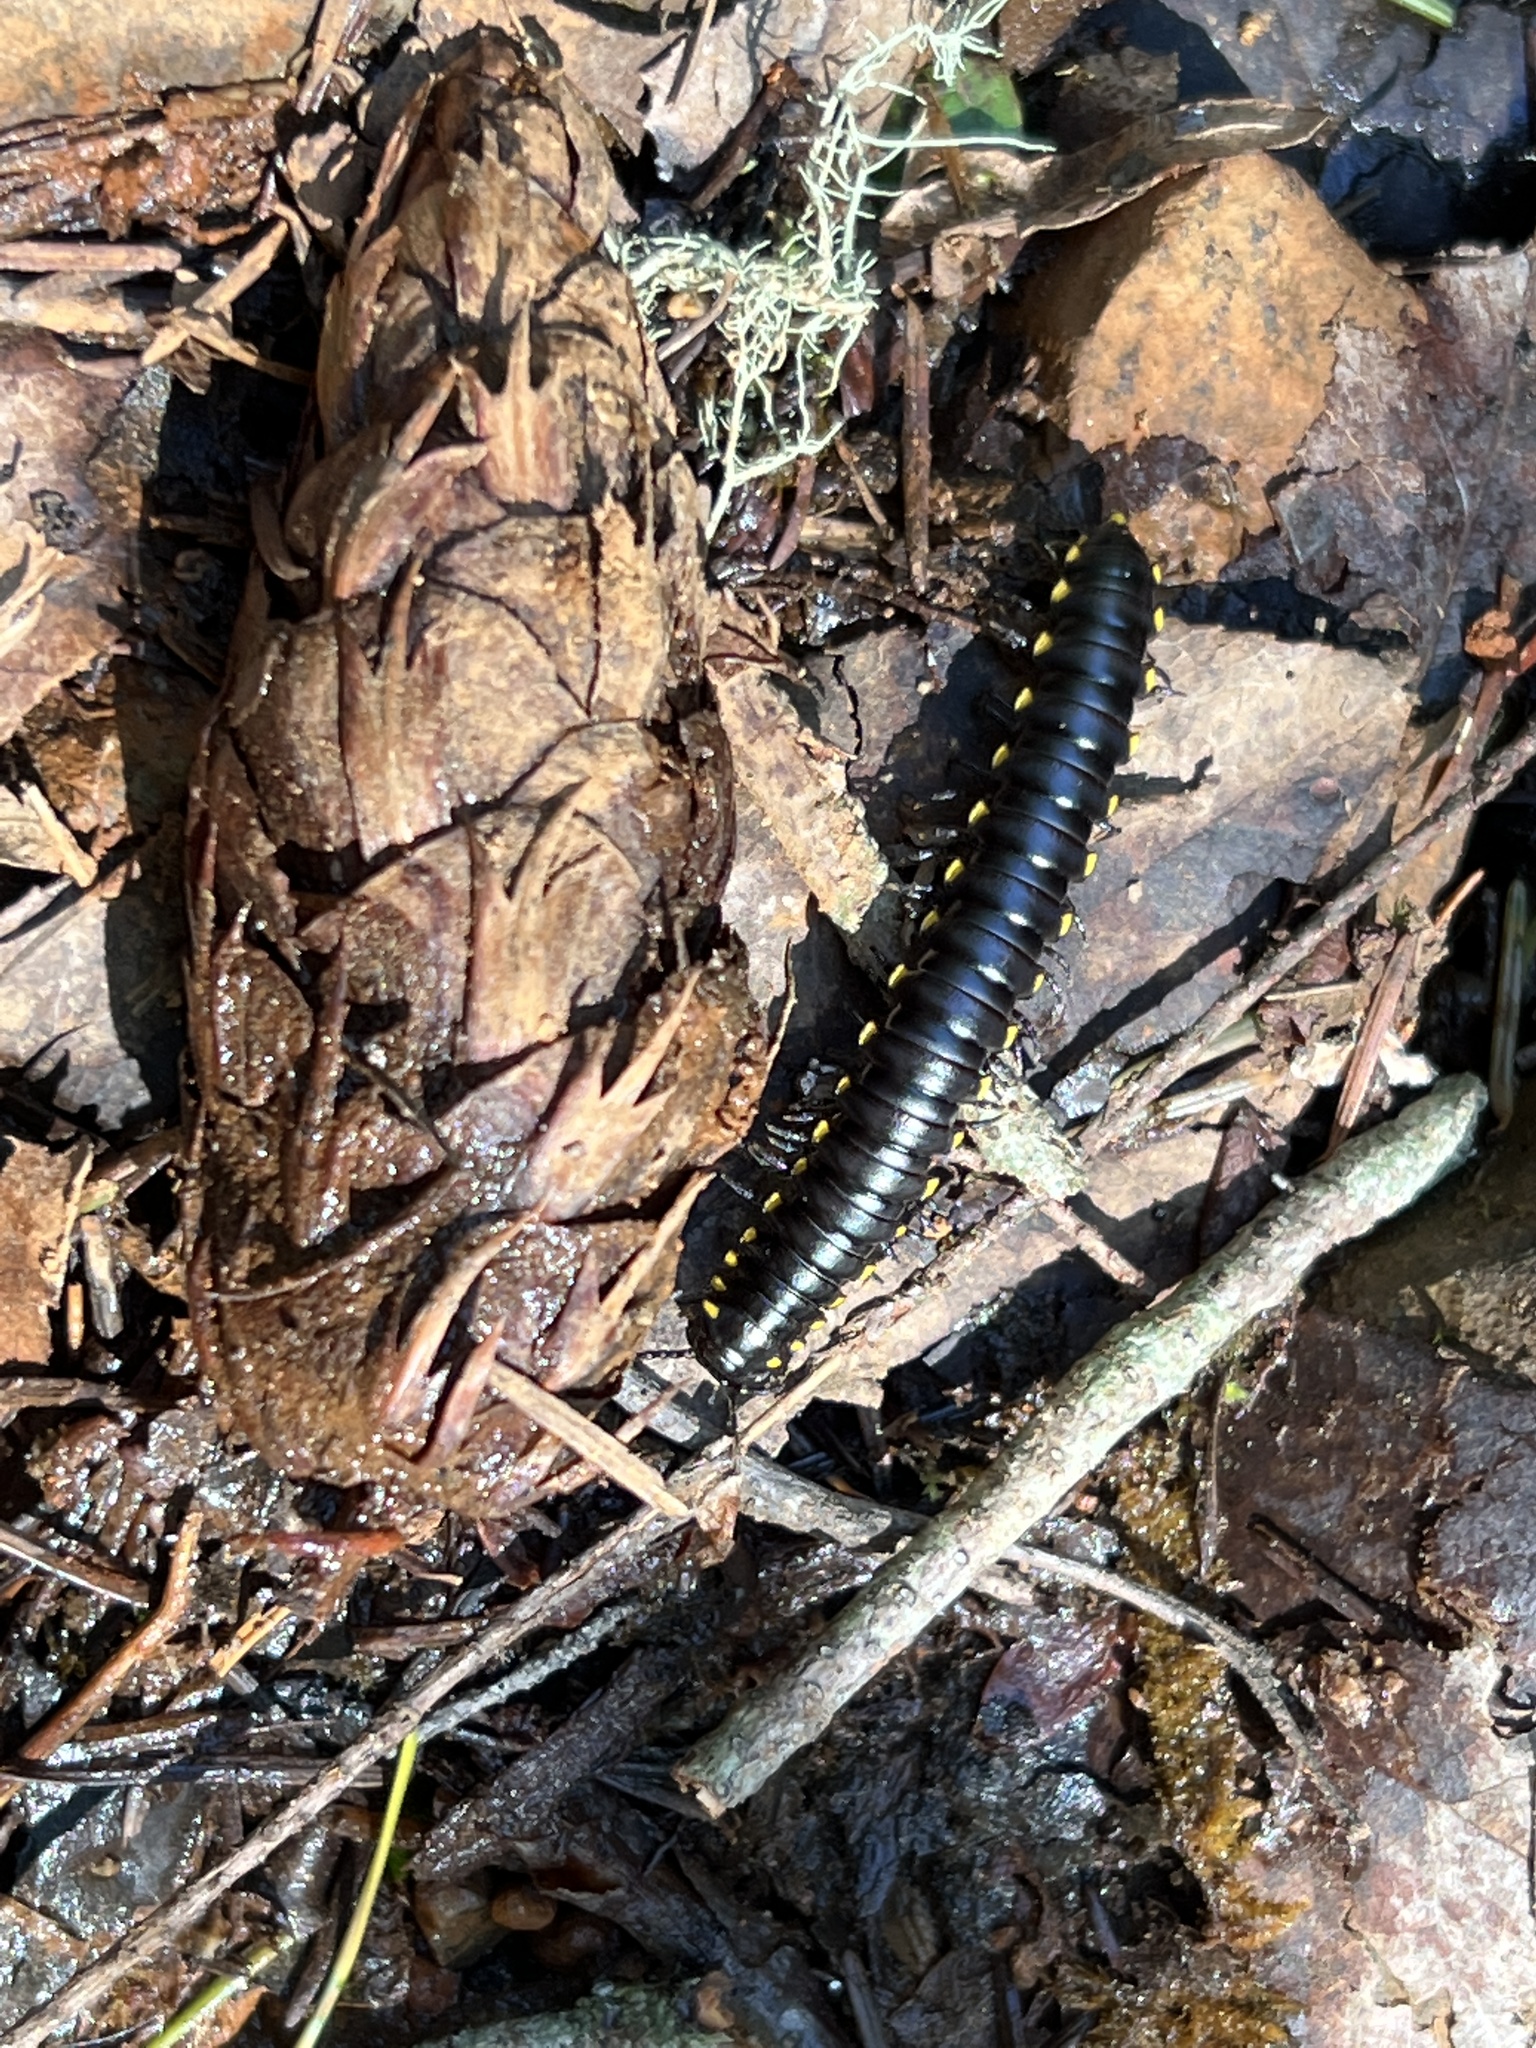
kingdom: Animalia
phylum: Arthropoda
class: Diplopoda
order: Polydesmida
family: Xystodesmidae
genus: Harpaphe
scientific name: Harpaphe haydeniana
